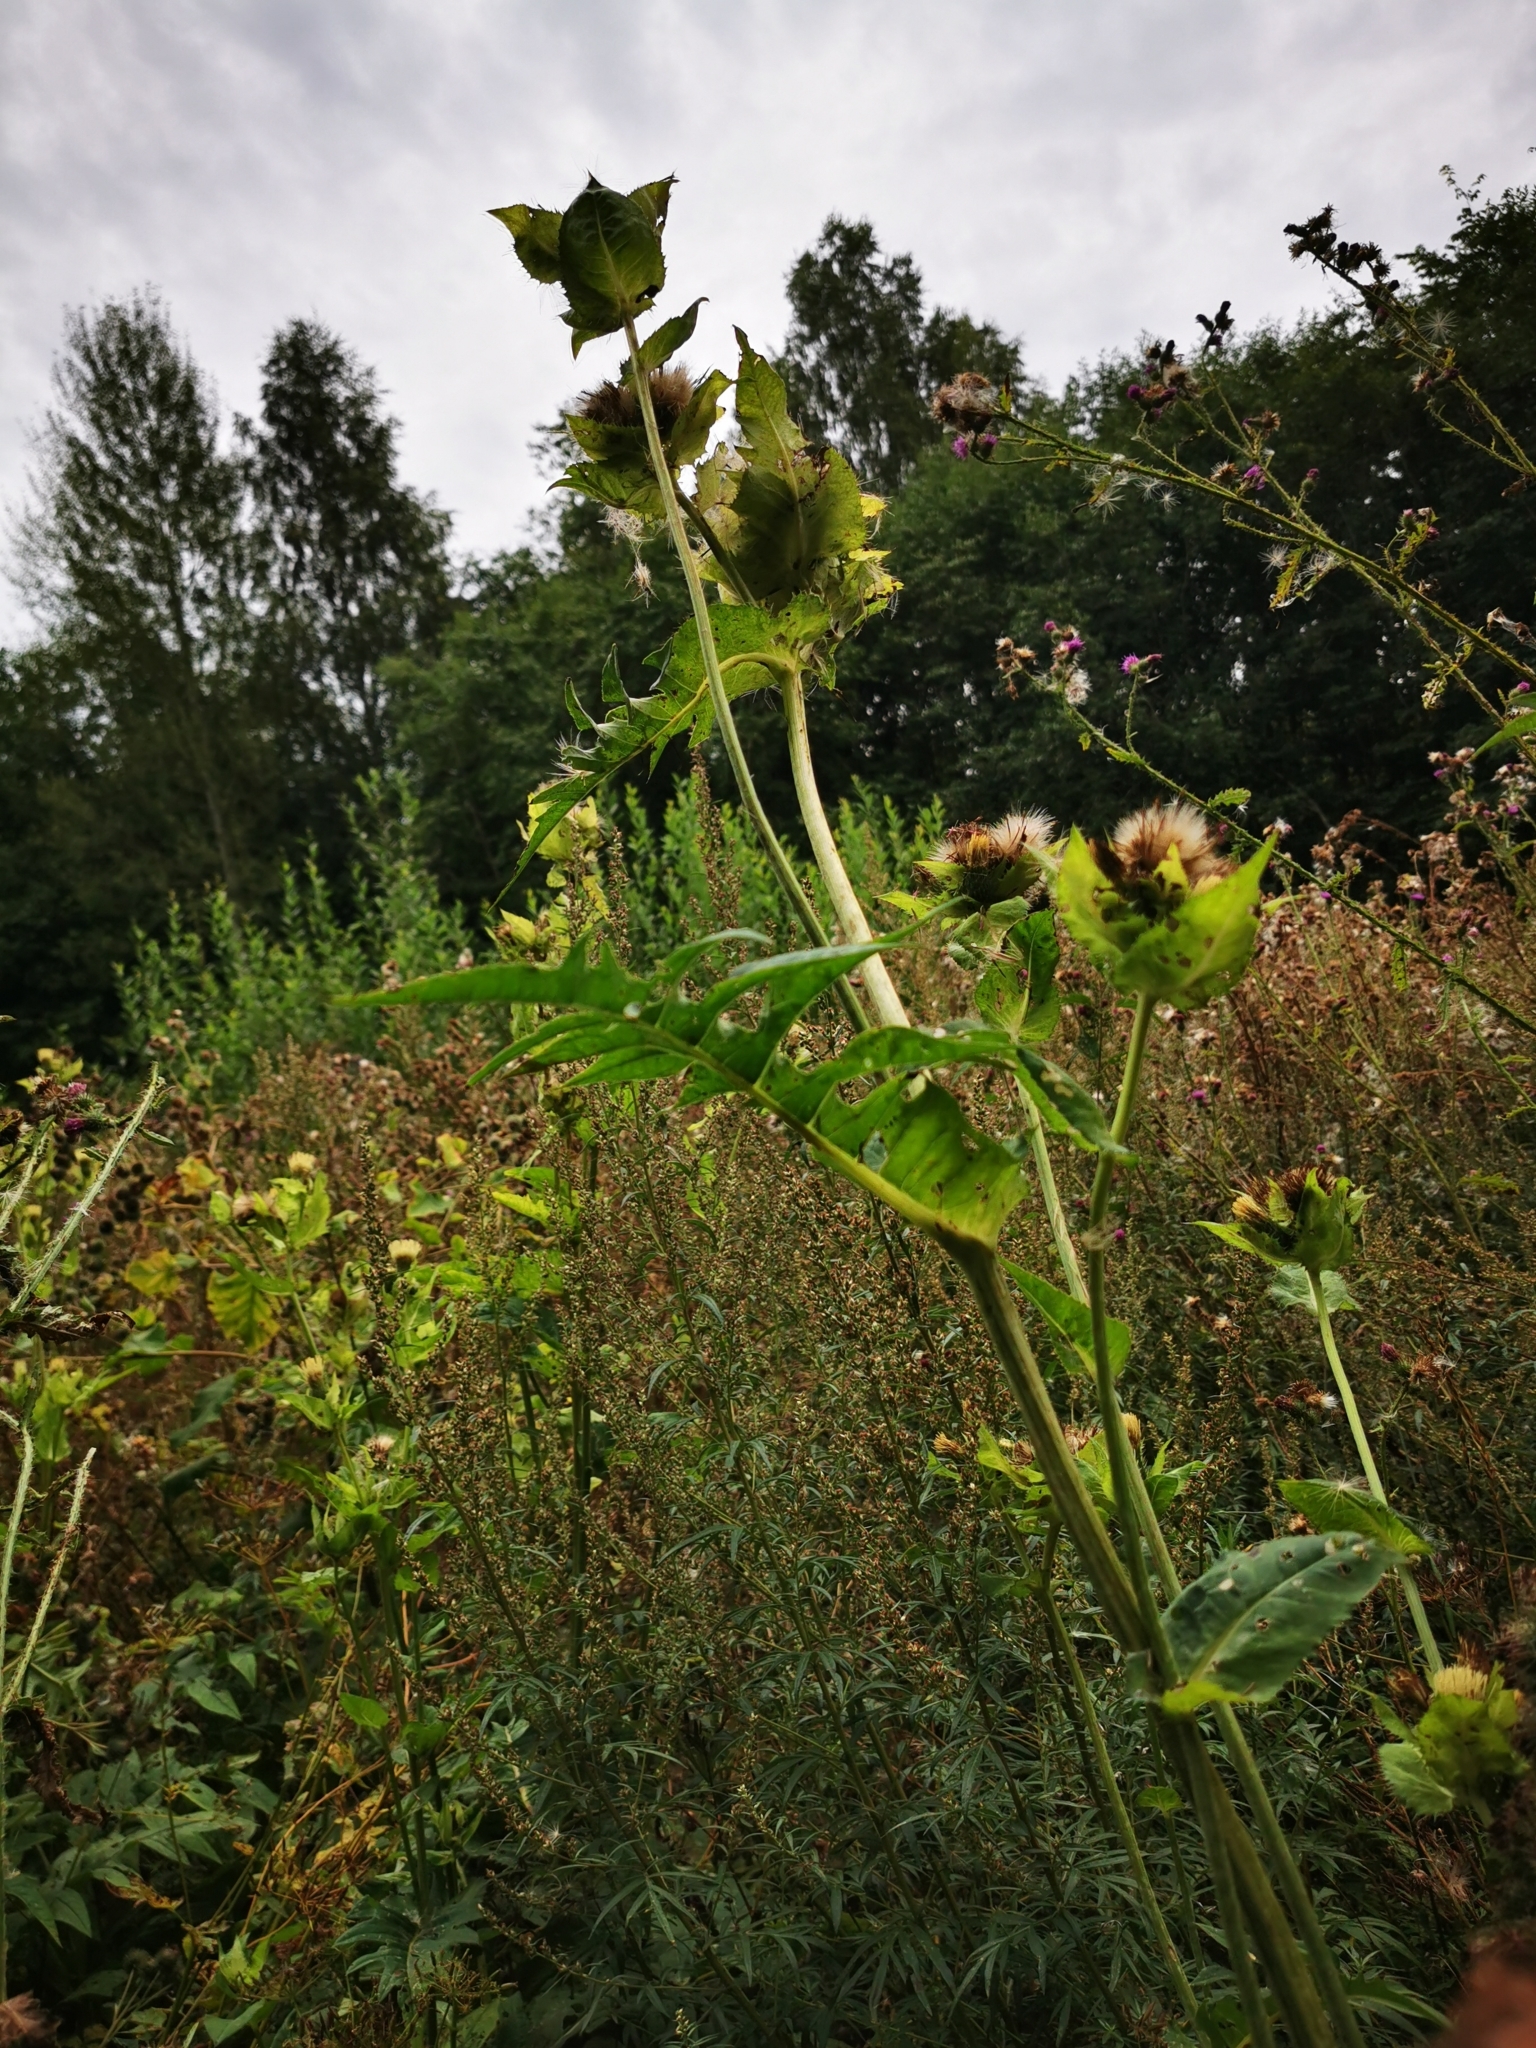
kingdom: Plantae
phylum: Tracheophyta
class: Magnoliopsida
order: Asterales
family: Asteraceae
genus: Cirsium
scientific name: Cirsium oleraceum
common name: Cabbage thistle
